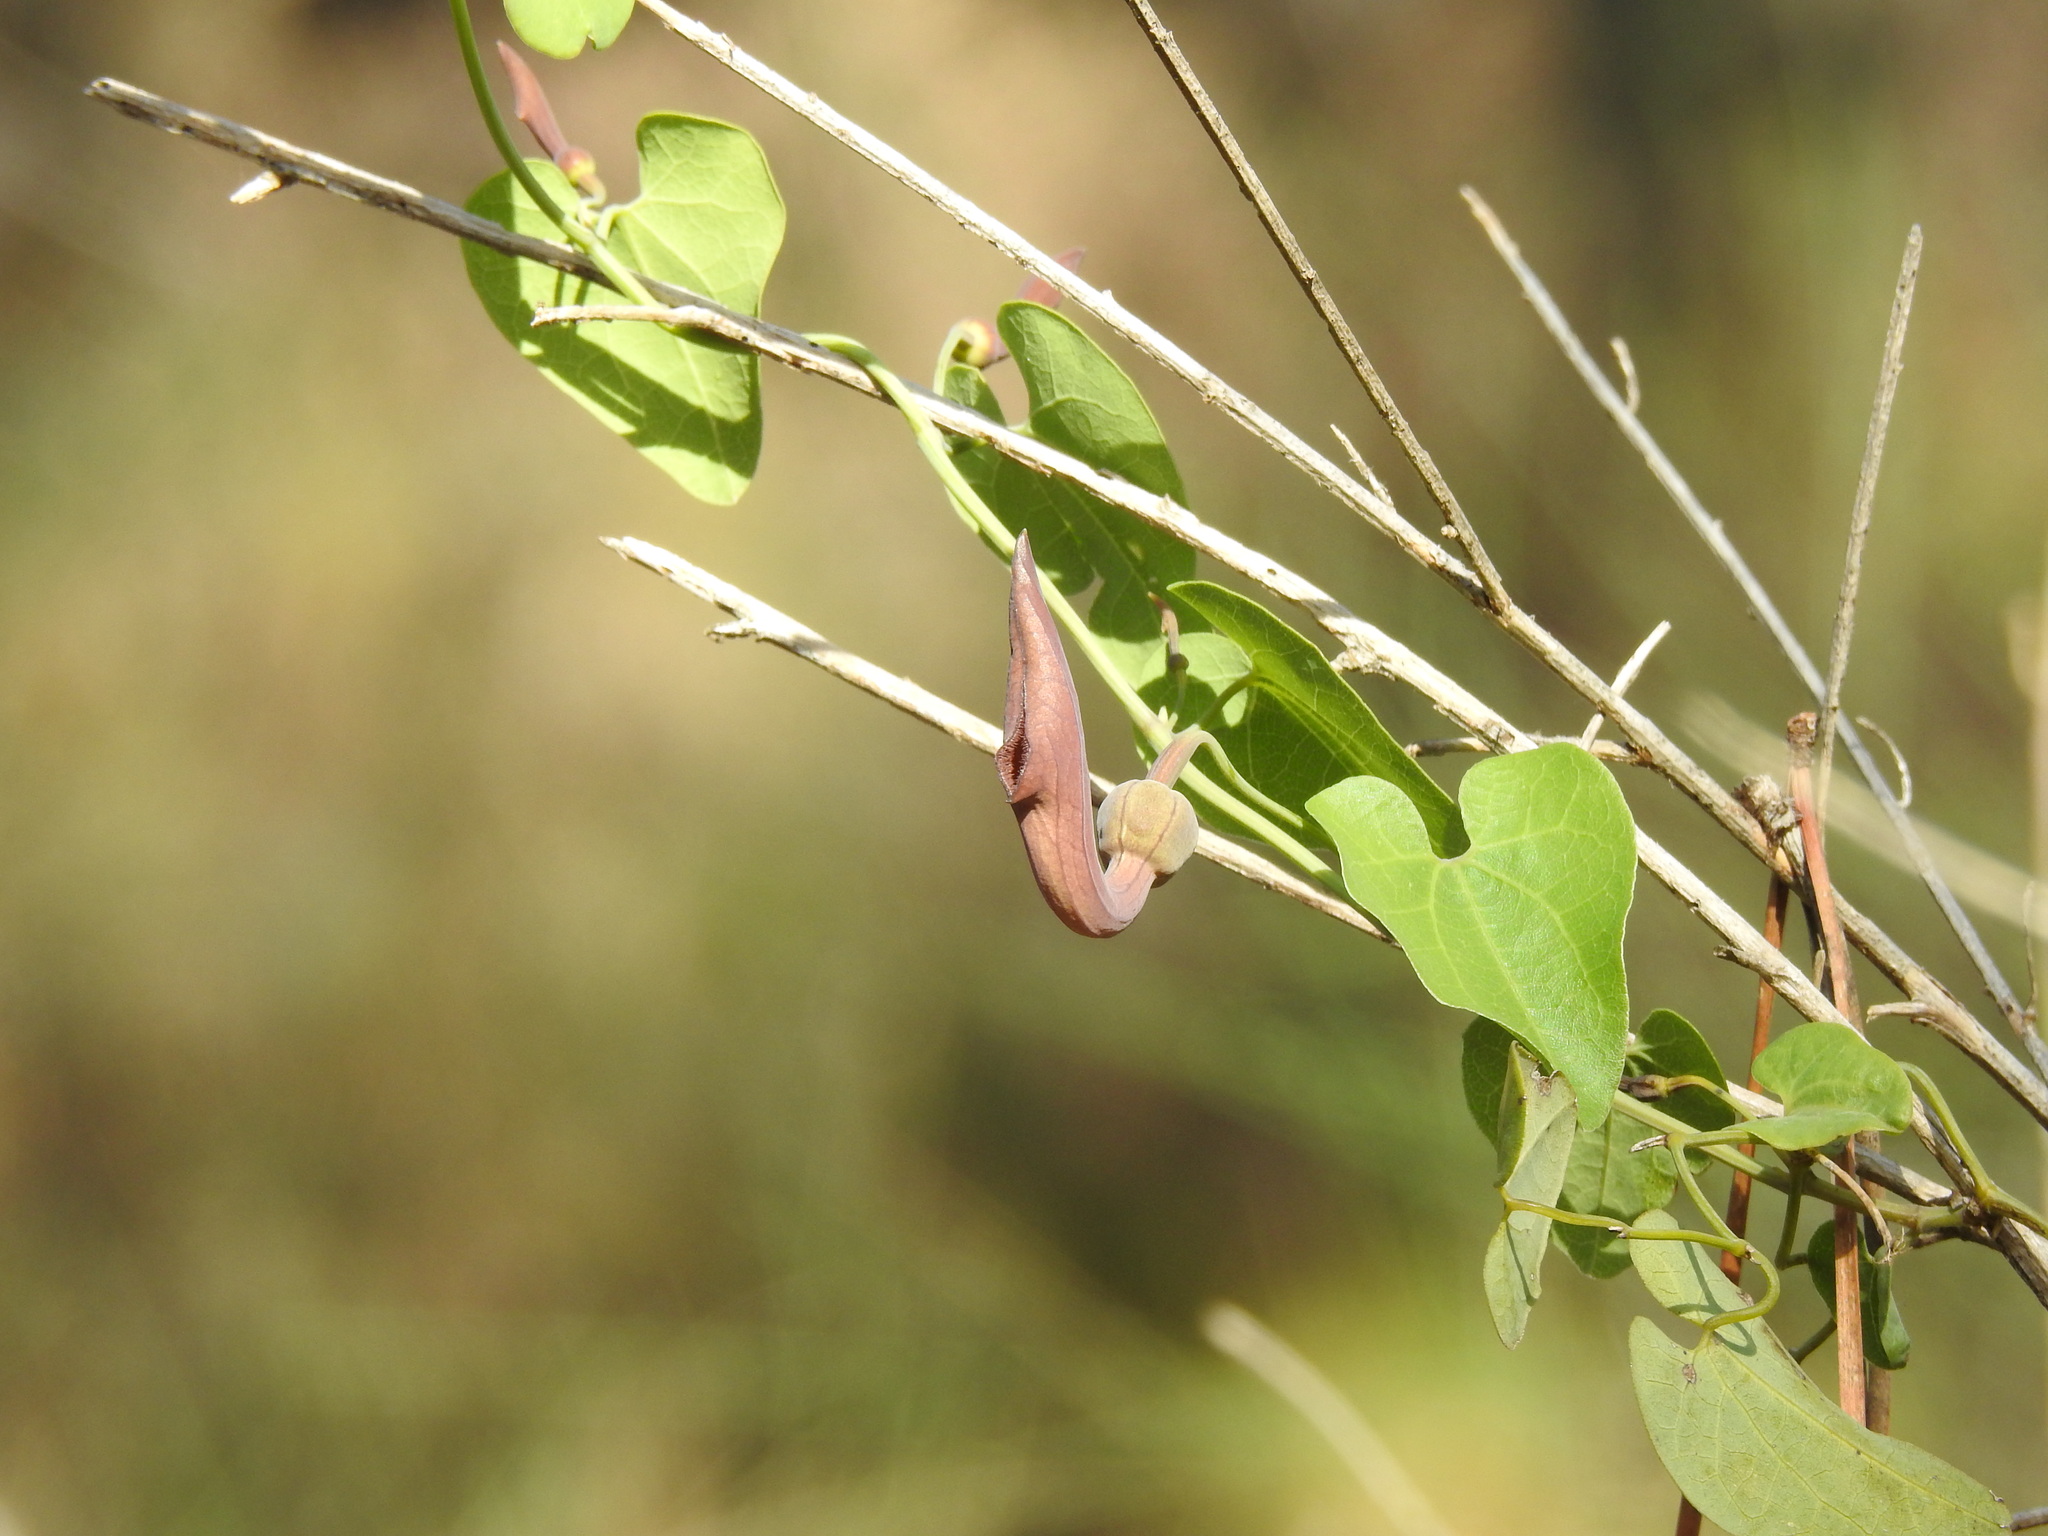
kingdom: Plantae
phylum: Tracheophyta
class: Magnoliopsida
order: Piperales
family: Aristolochiaceae
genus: Aristolochia
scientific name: Aristolochia baetica
